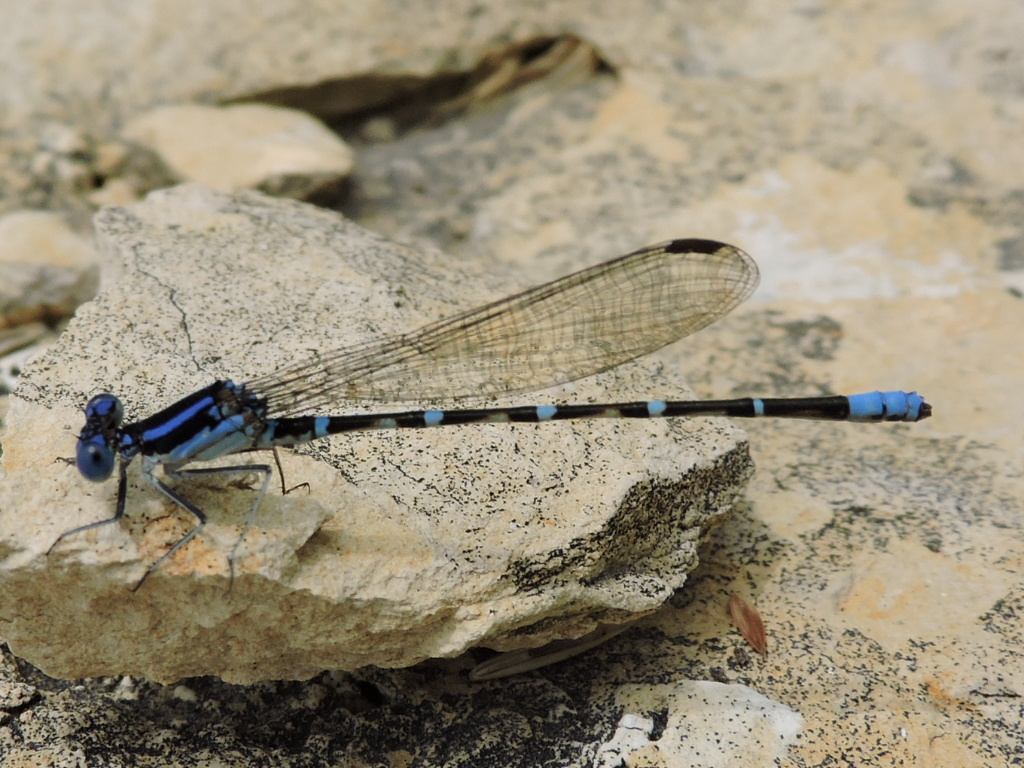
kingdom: Animalia
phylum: Arthropoda
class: Insecta
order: Odonata
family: Coenagrionidae
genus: Argia
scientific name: Argia sedula
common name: Blue-ringed dancer
